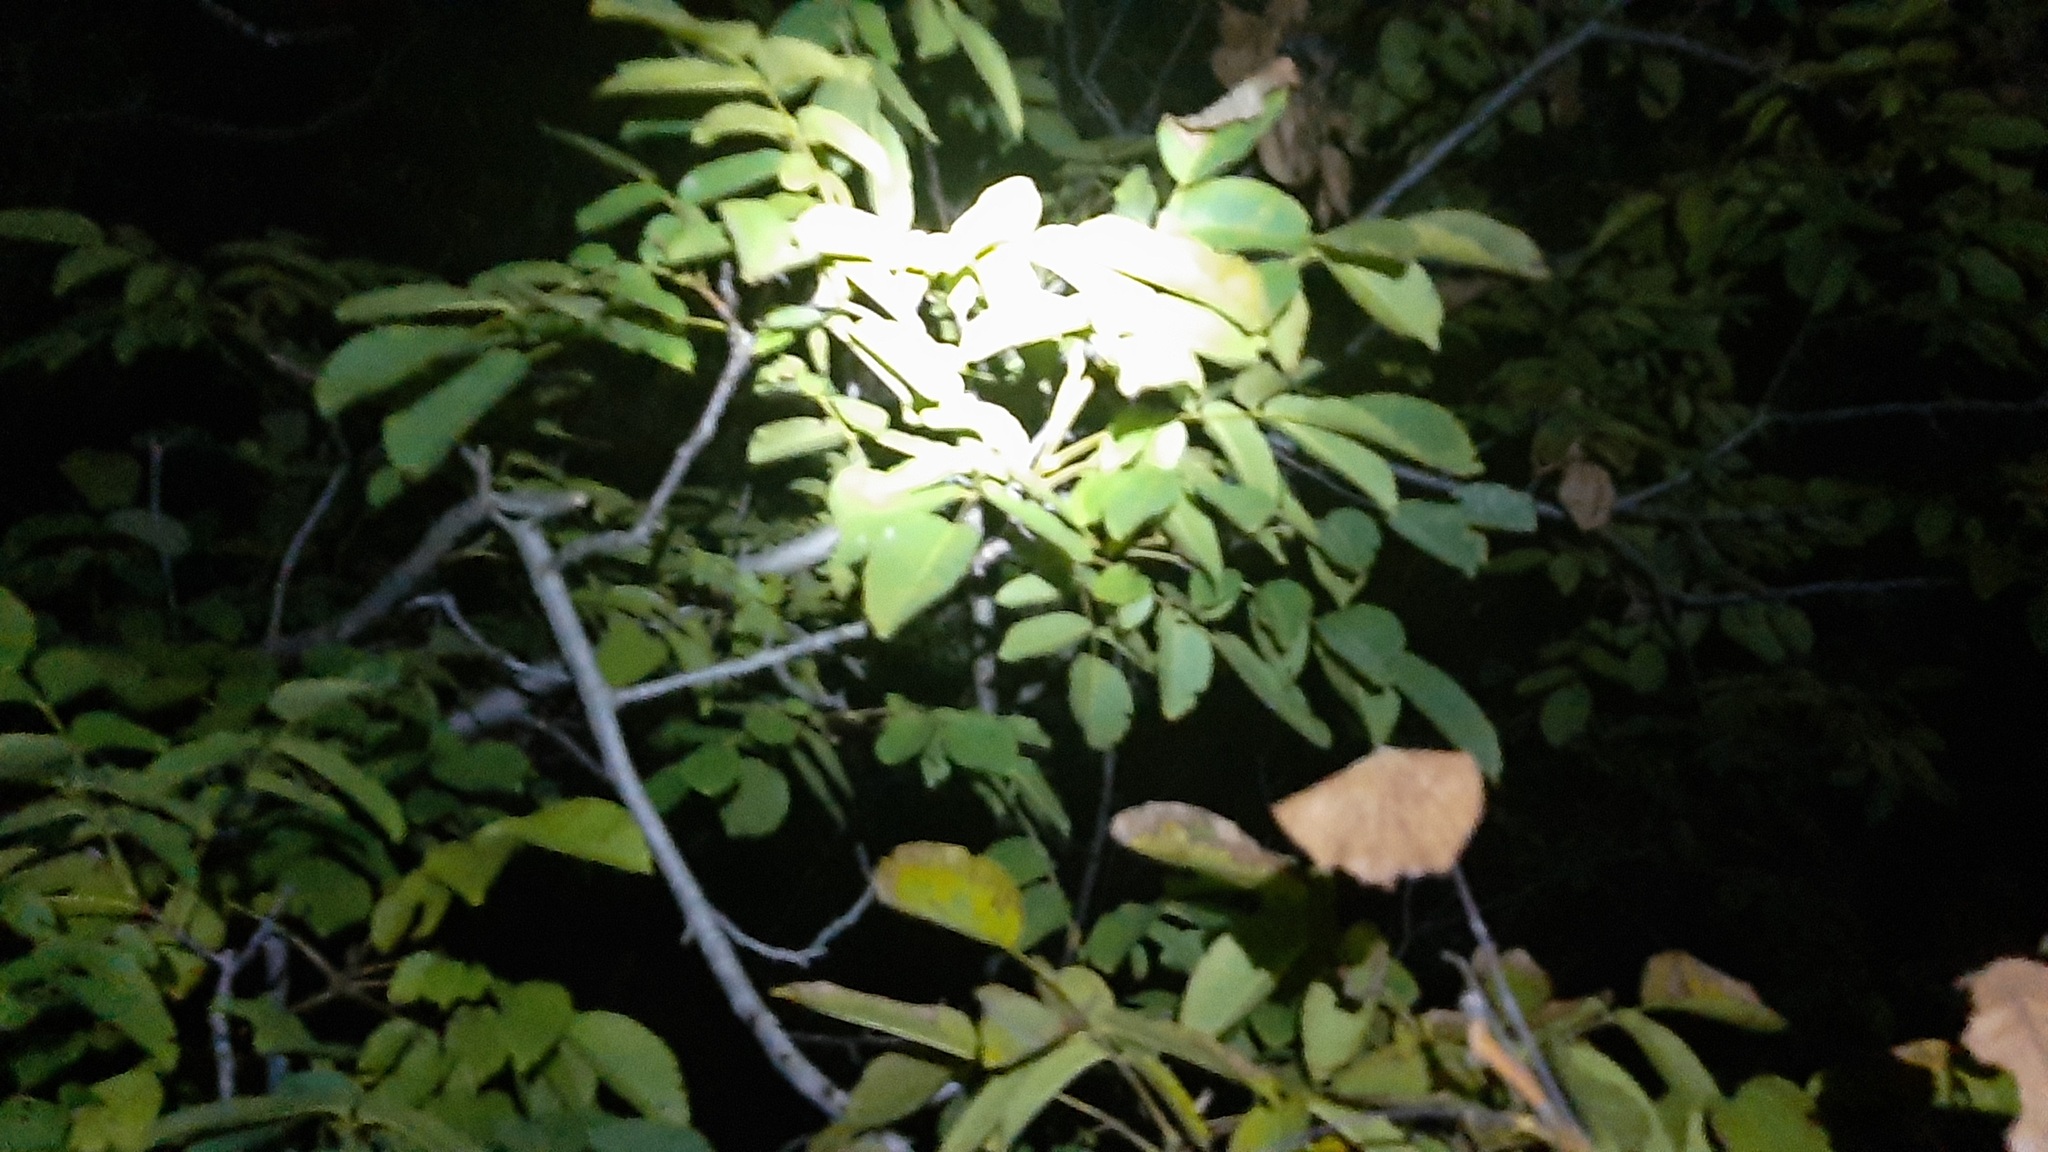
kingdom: Plantae
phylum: Tracheophyta
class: Magnoliopsida
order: Fagales
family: Juglandaceae
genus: Juglans
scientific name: Juglans regia
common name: Walnut
